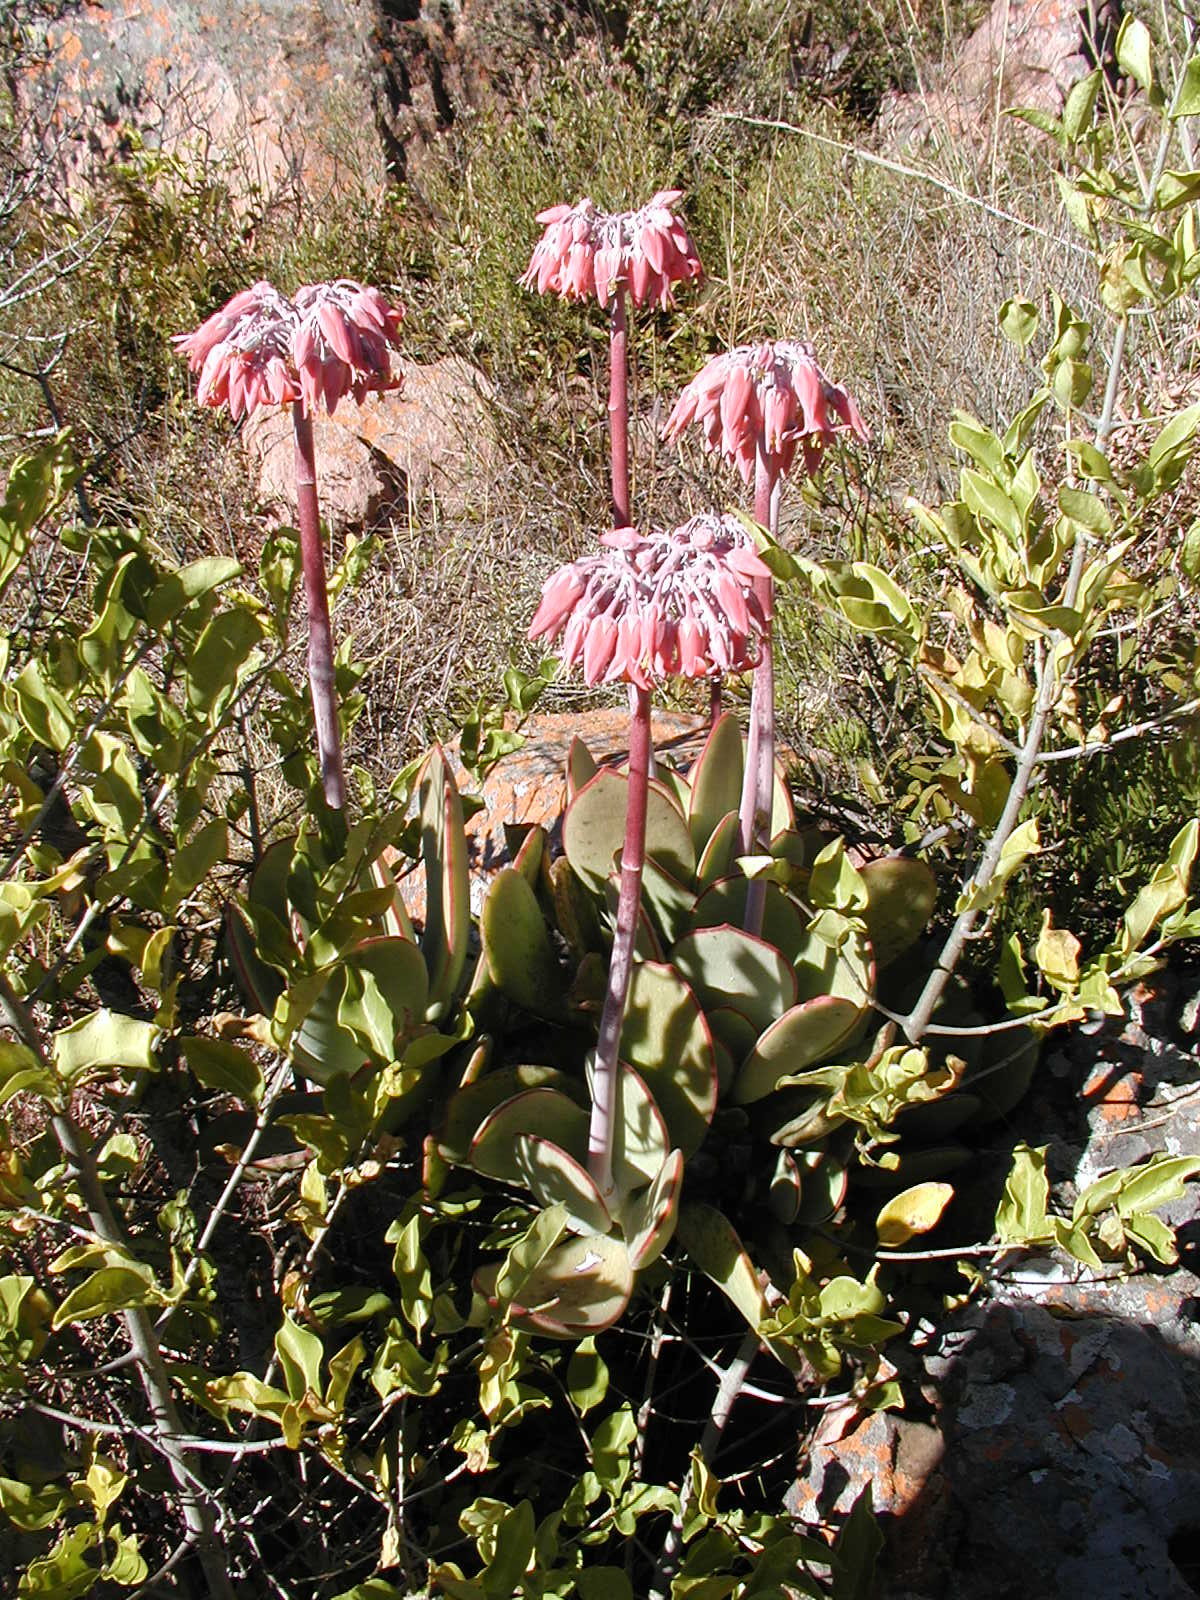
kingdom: Plantae
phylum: Tracheophyta
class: Magnoliopsida
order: Saxifragales
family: Crassulaceae
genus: Cotyledon
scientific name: Cotyledon orbiculata
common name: Pig's ear
